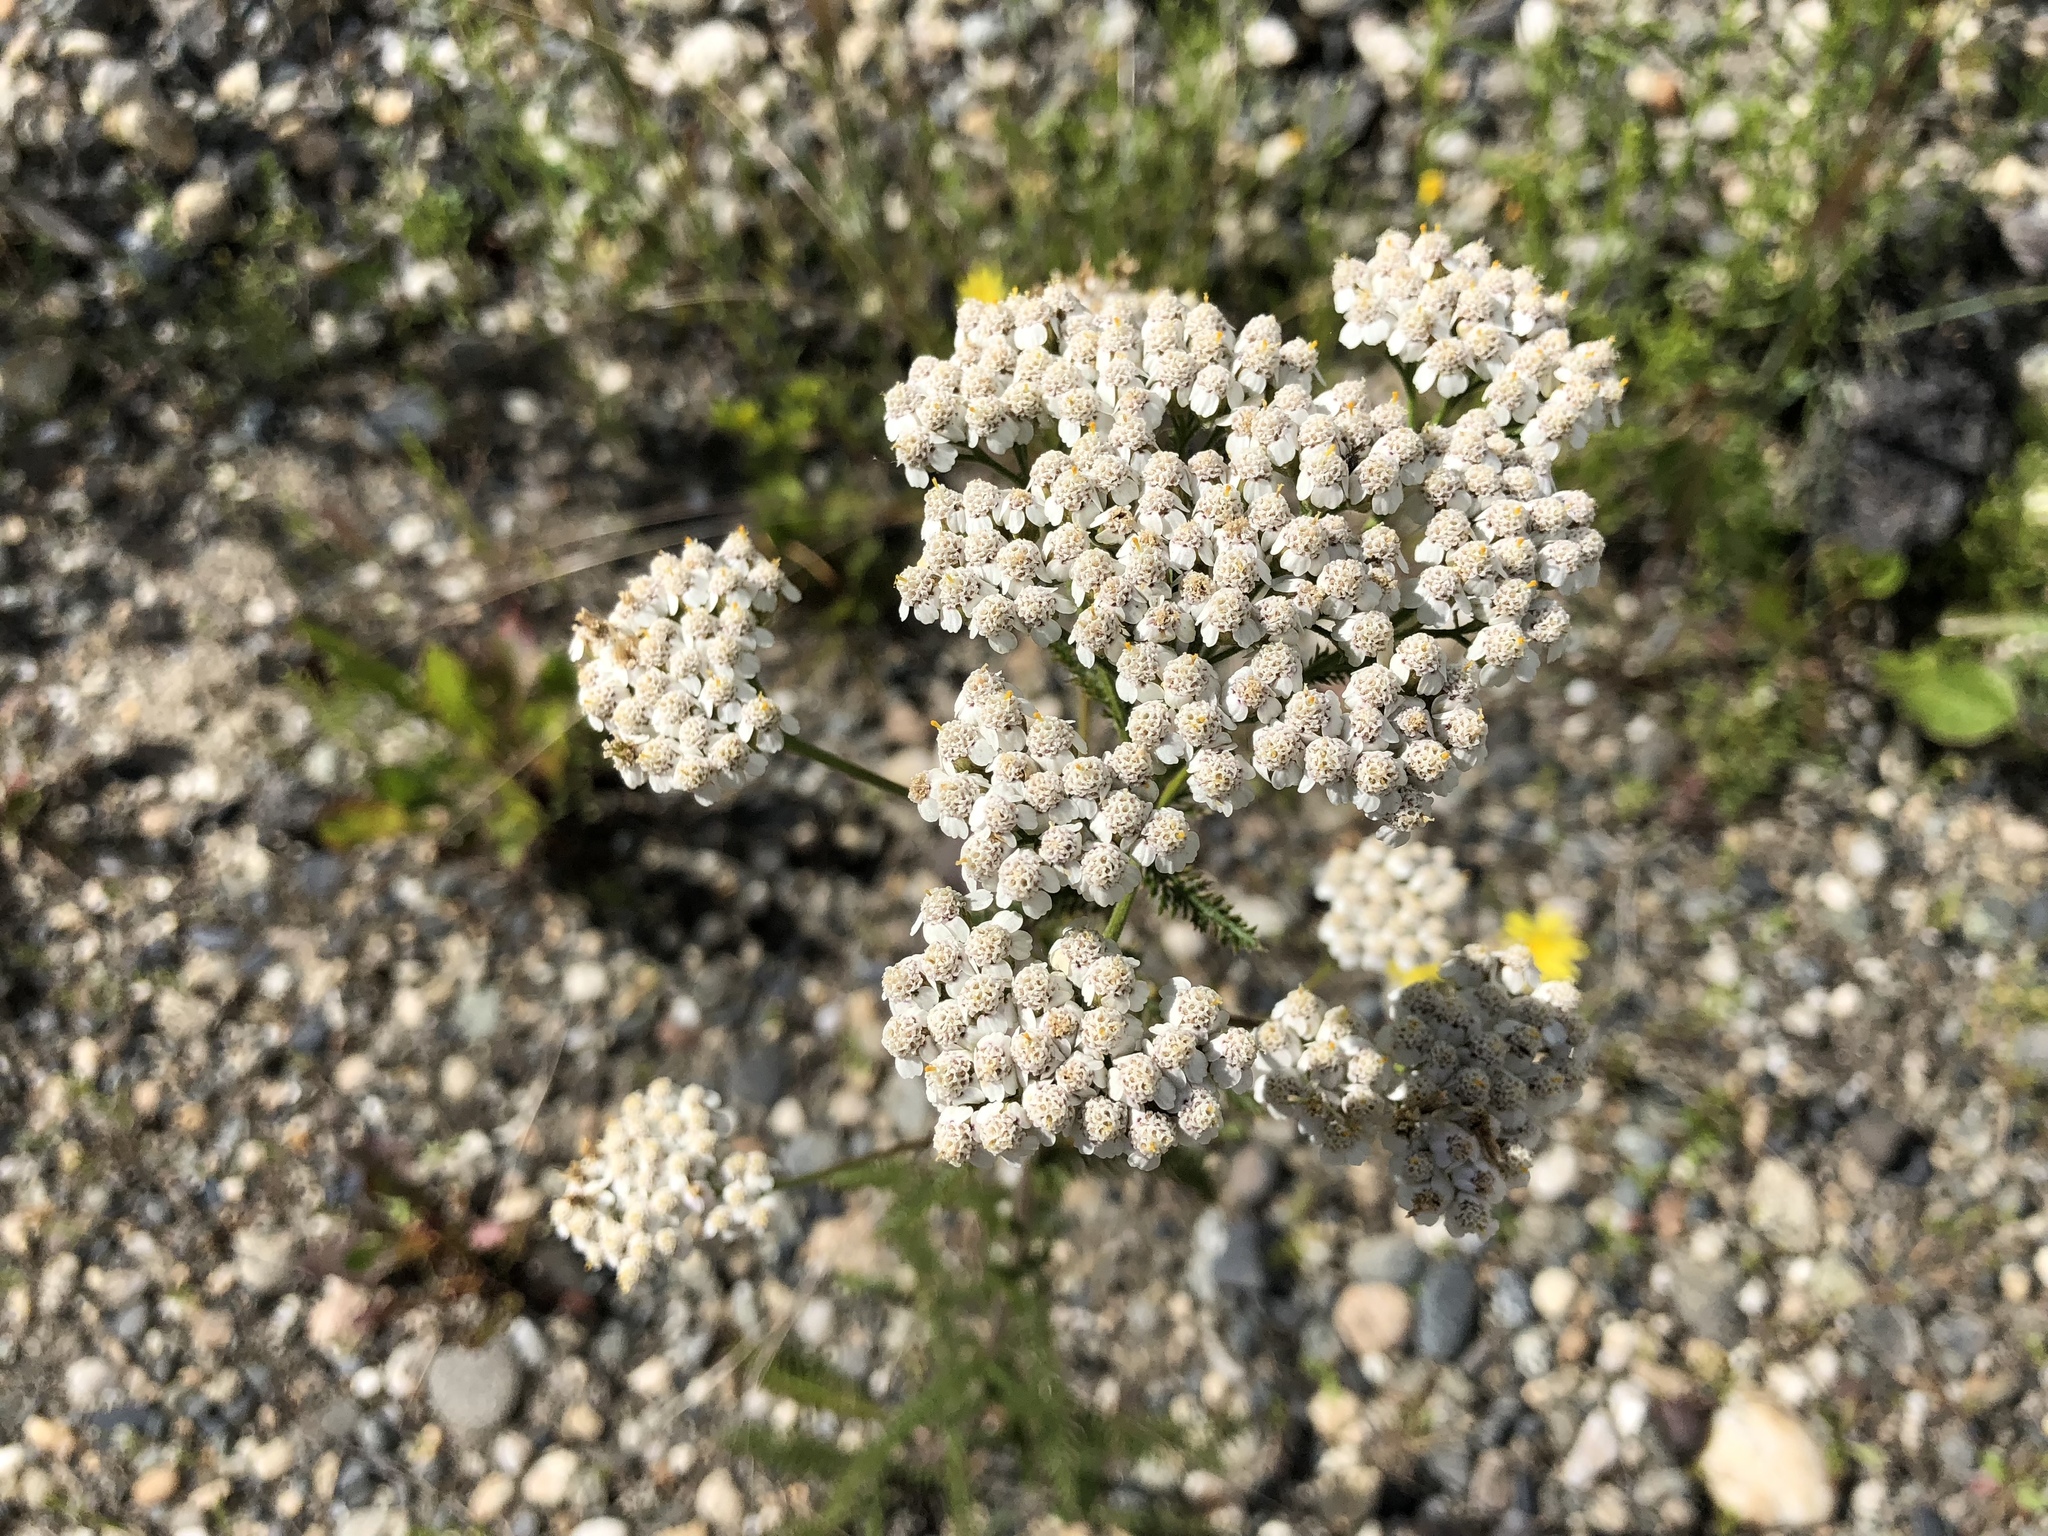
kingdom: Plantae
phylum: Tracheophyta
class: Magnoliopsida
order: Asterales
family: Asteraceae
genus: Achillea
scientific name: Achillea millefolium
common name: Yarrow
